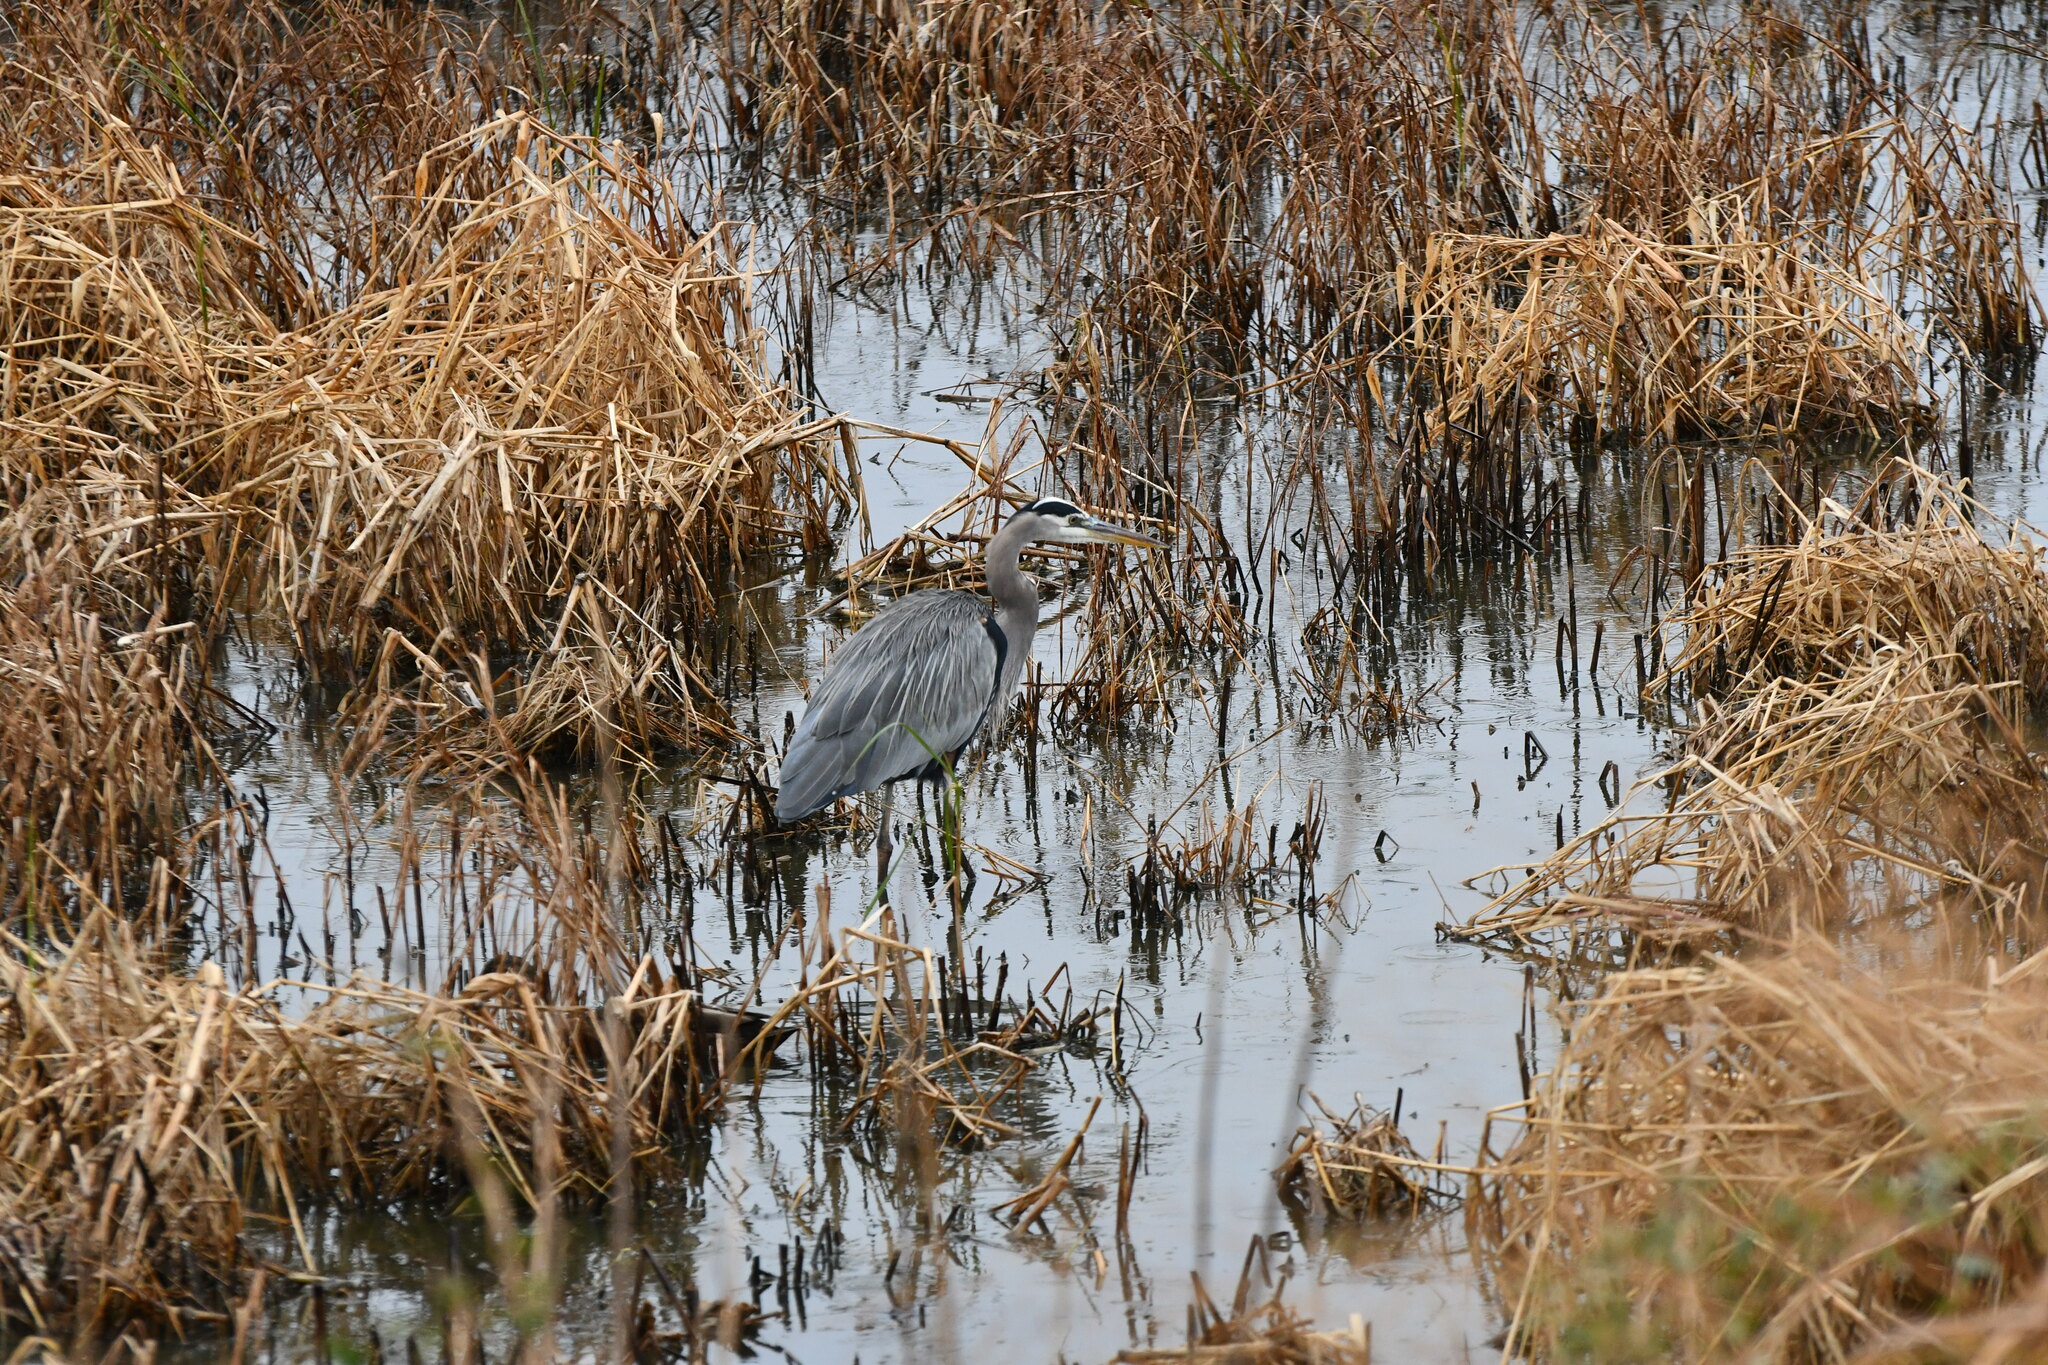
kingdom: Animalia
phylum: Chordata
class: Aves
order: Pelecaniformes
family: Ardeidae
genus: Ardea
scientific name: Ardea herodias
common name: Great blue heron
